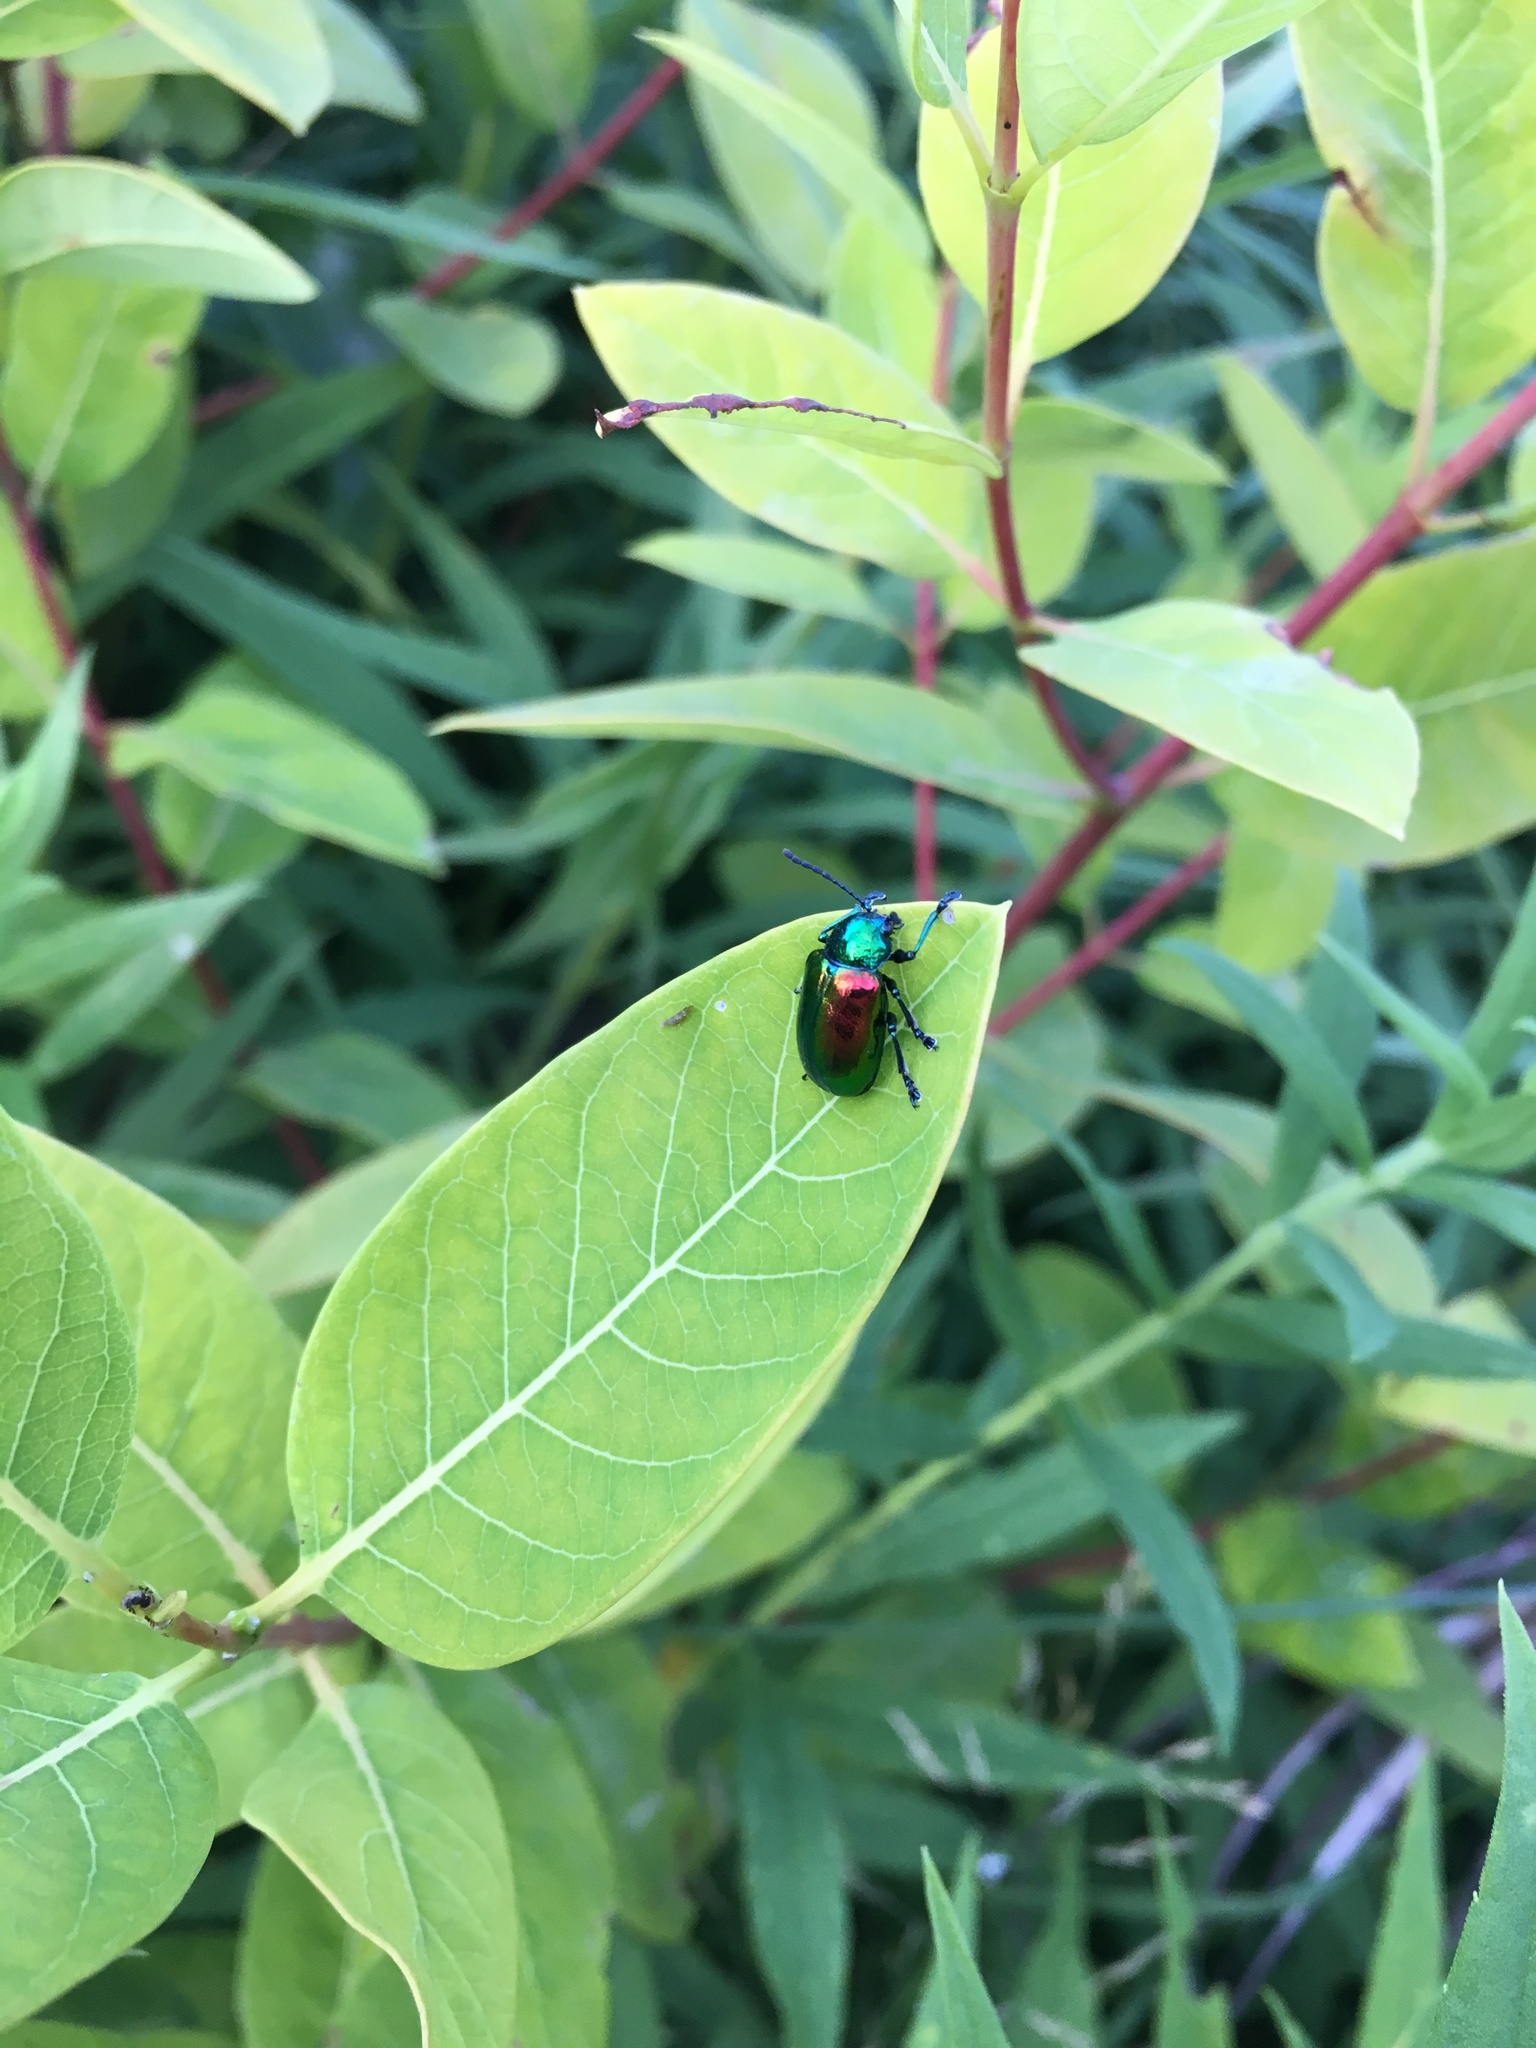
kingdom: Animalia
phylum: Arthropoda
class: Insecta
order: Coleoptera
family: Chrysomelidae
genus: Chrysochus
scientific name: Chrysochus auratus
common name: Dogbane leaf beetle
